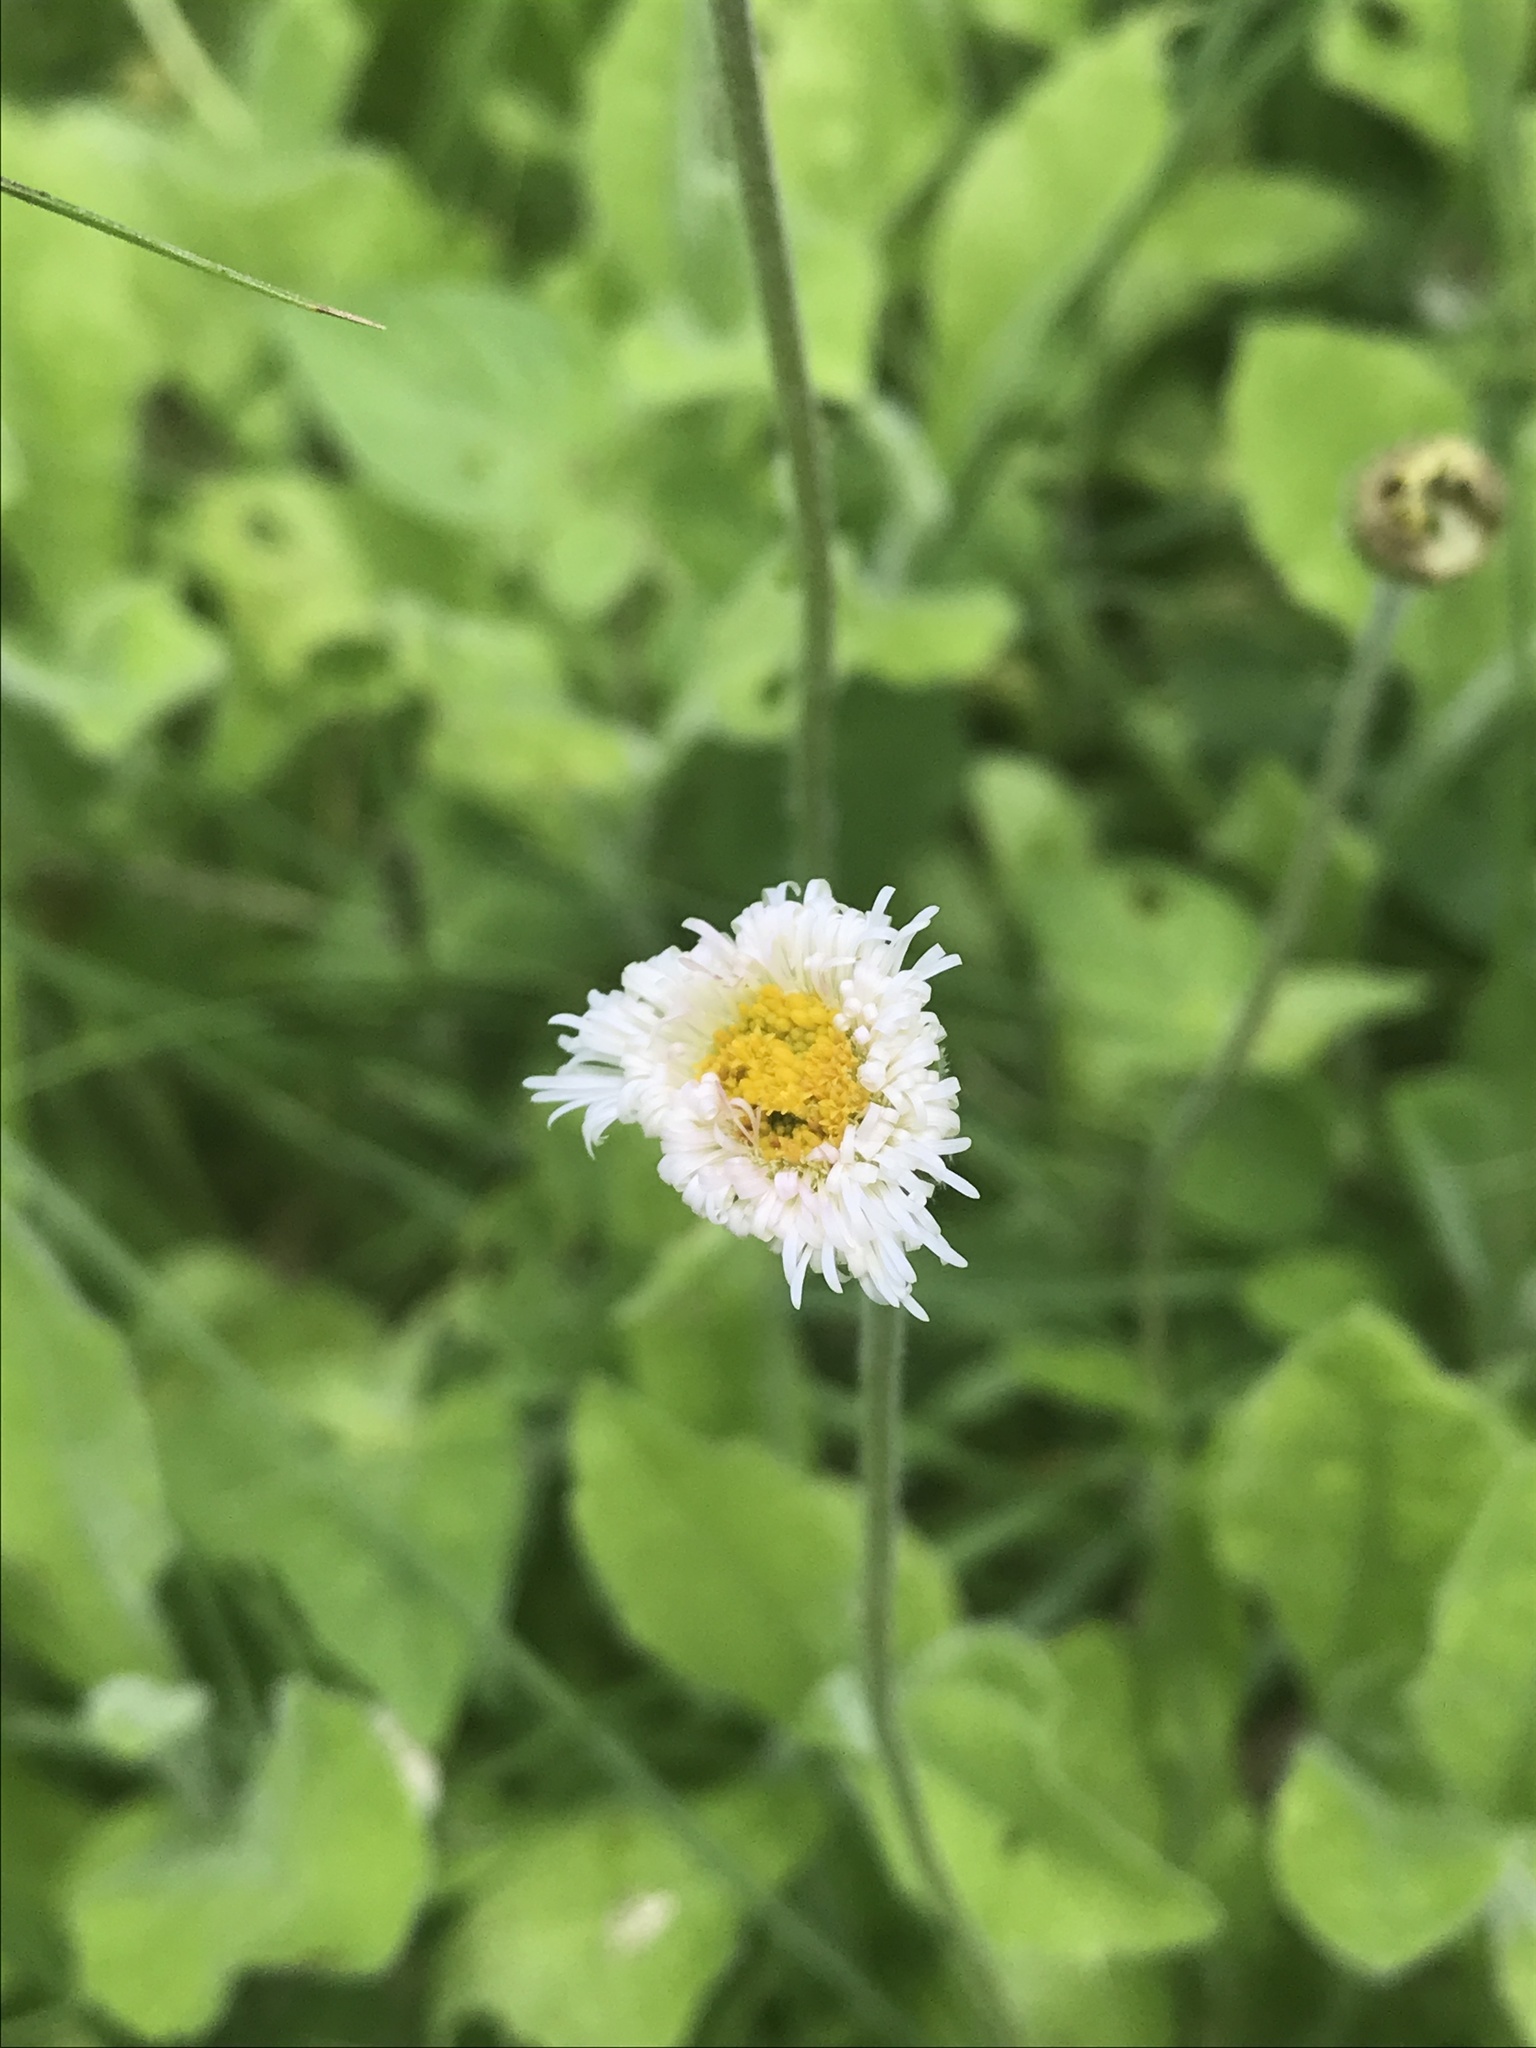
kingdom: Plantae
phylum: Tracheophyta
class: Magnoliopsida
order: Asterales
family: Asteraceae
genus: Erigeron
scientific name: Erigeron longipes
